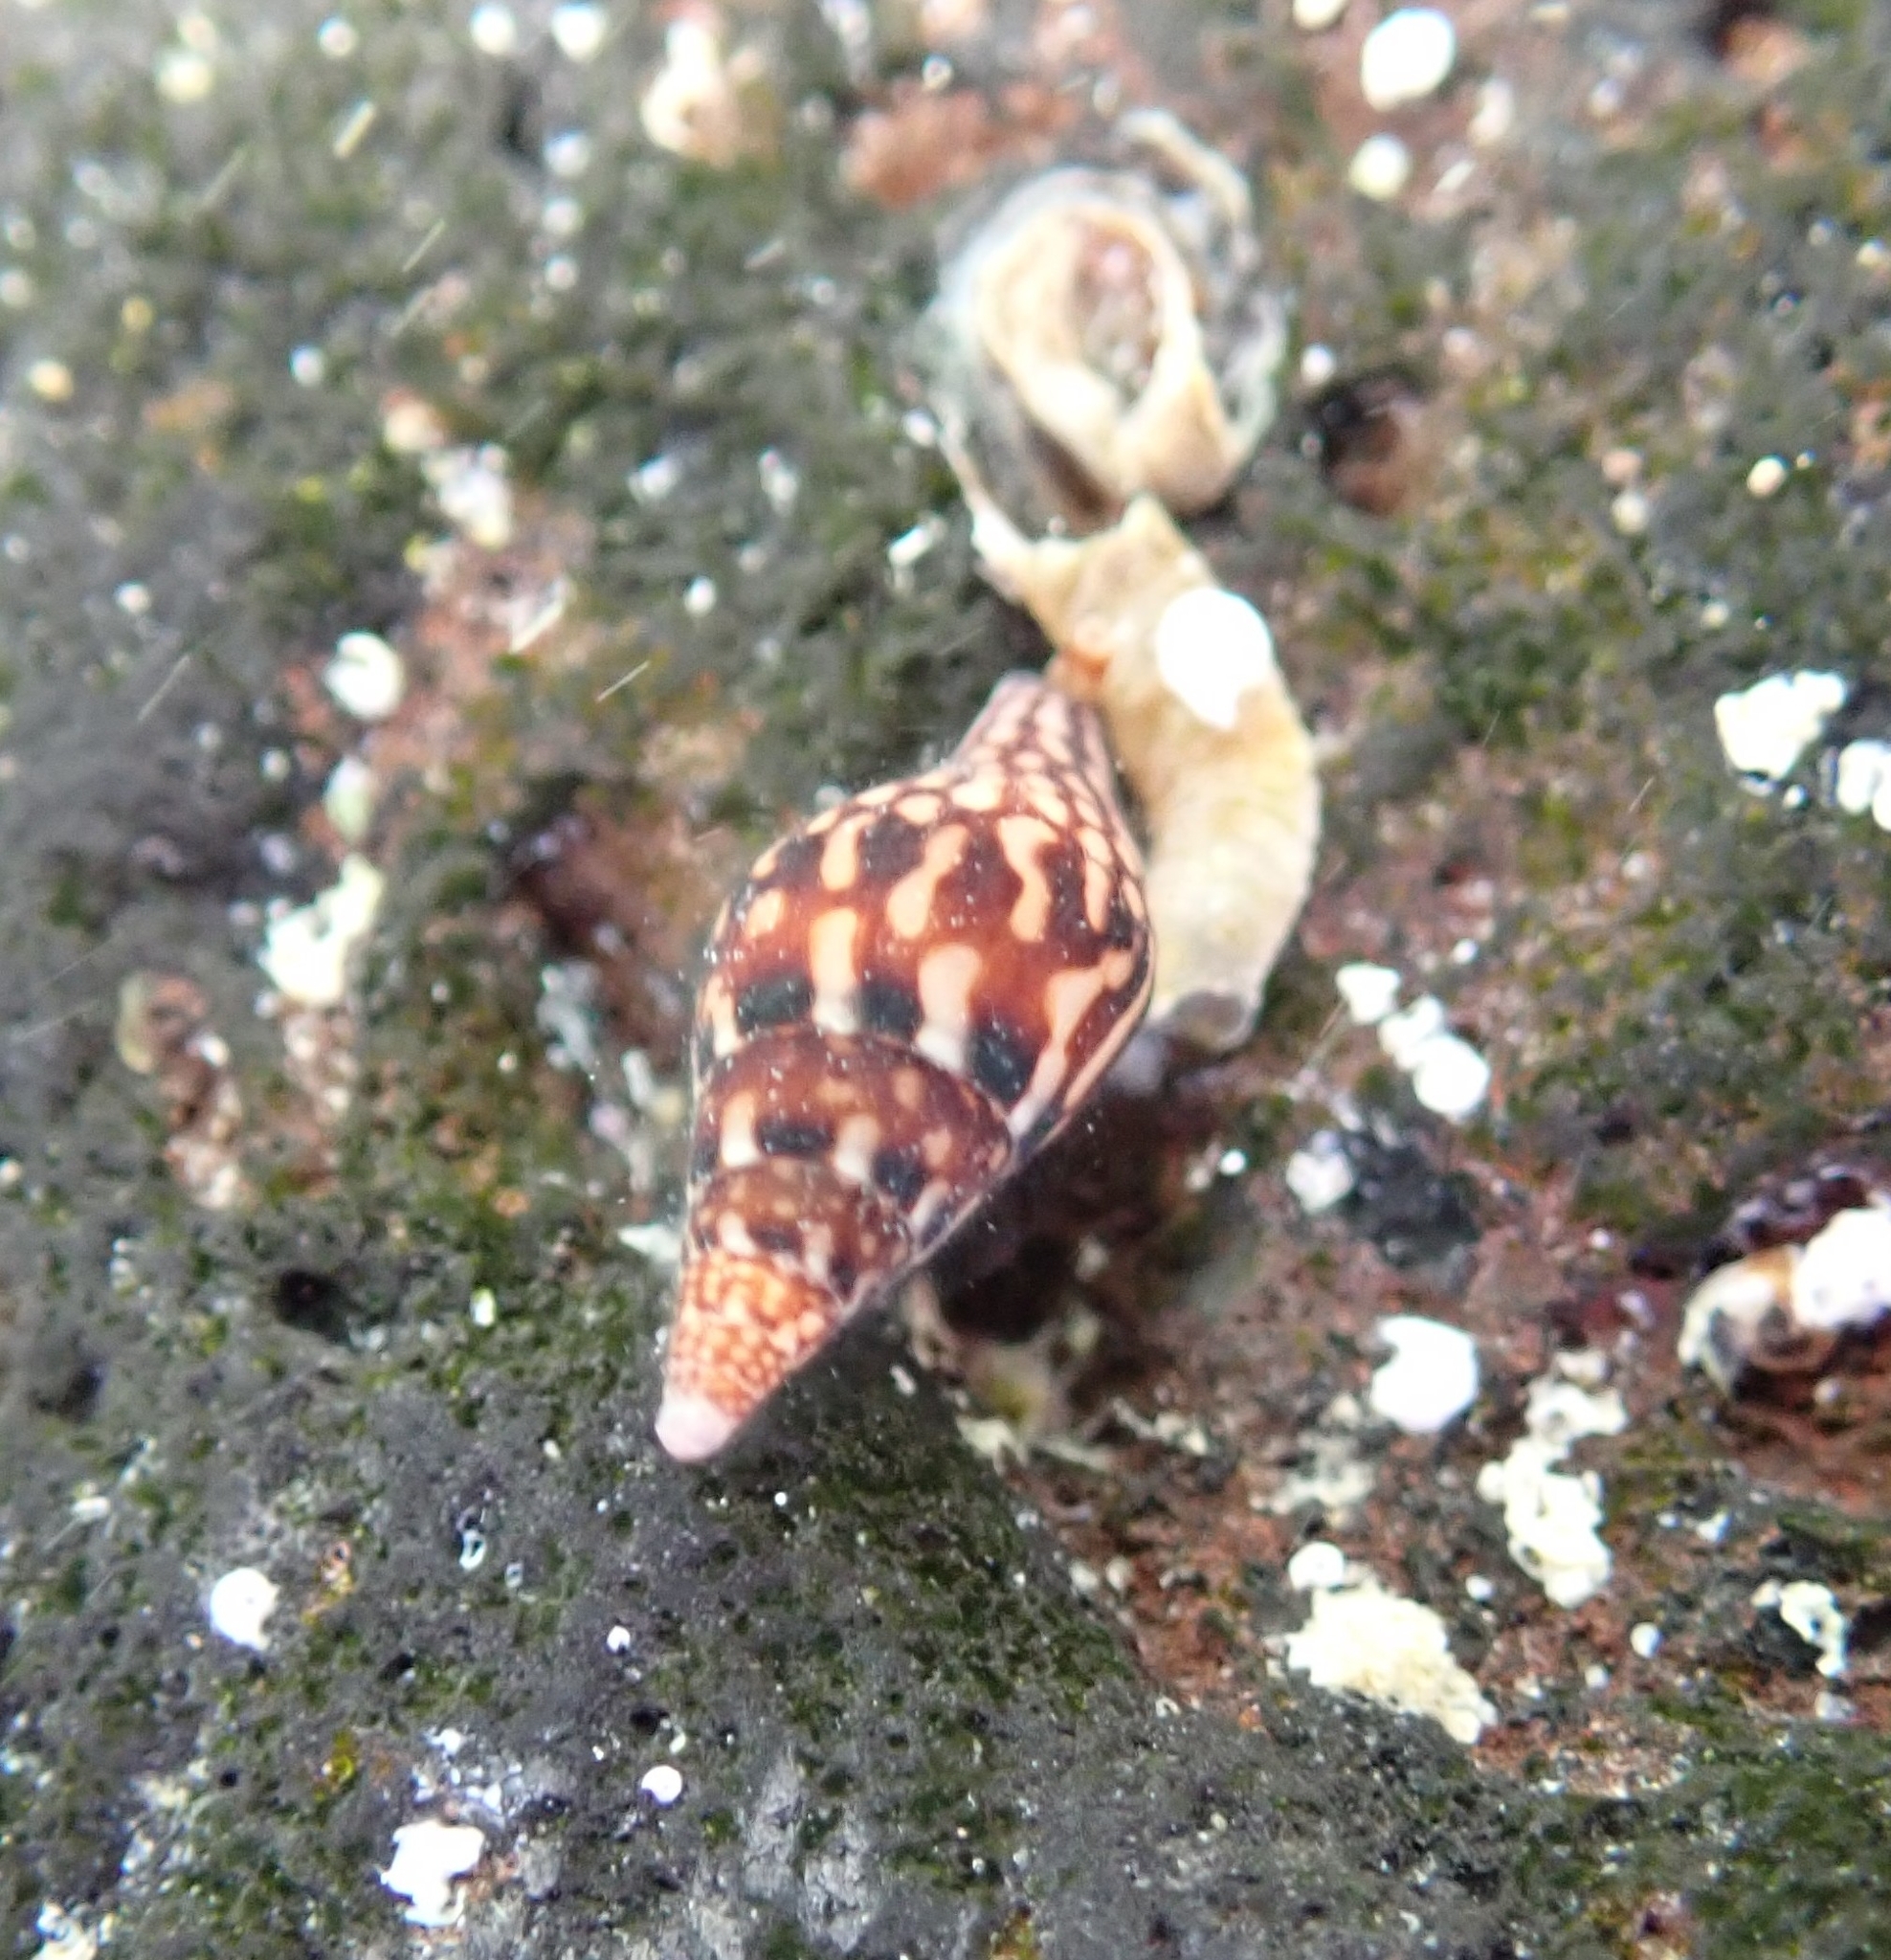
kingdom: Animalia
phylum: Mollusca
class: Gastropoda
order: Neogastropoda
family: Columbellidae
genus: Mitrella
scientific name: Mitrella ocellata
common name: White-spot dovesnail
